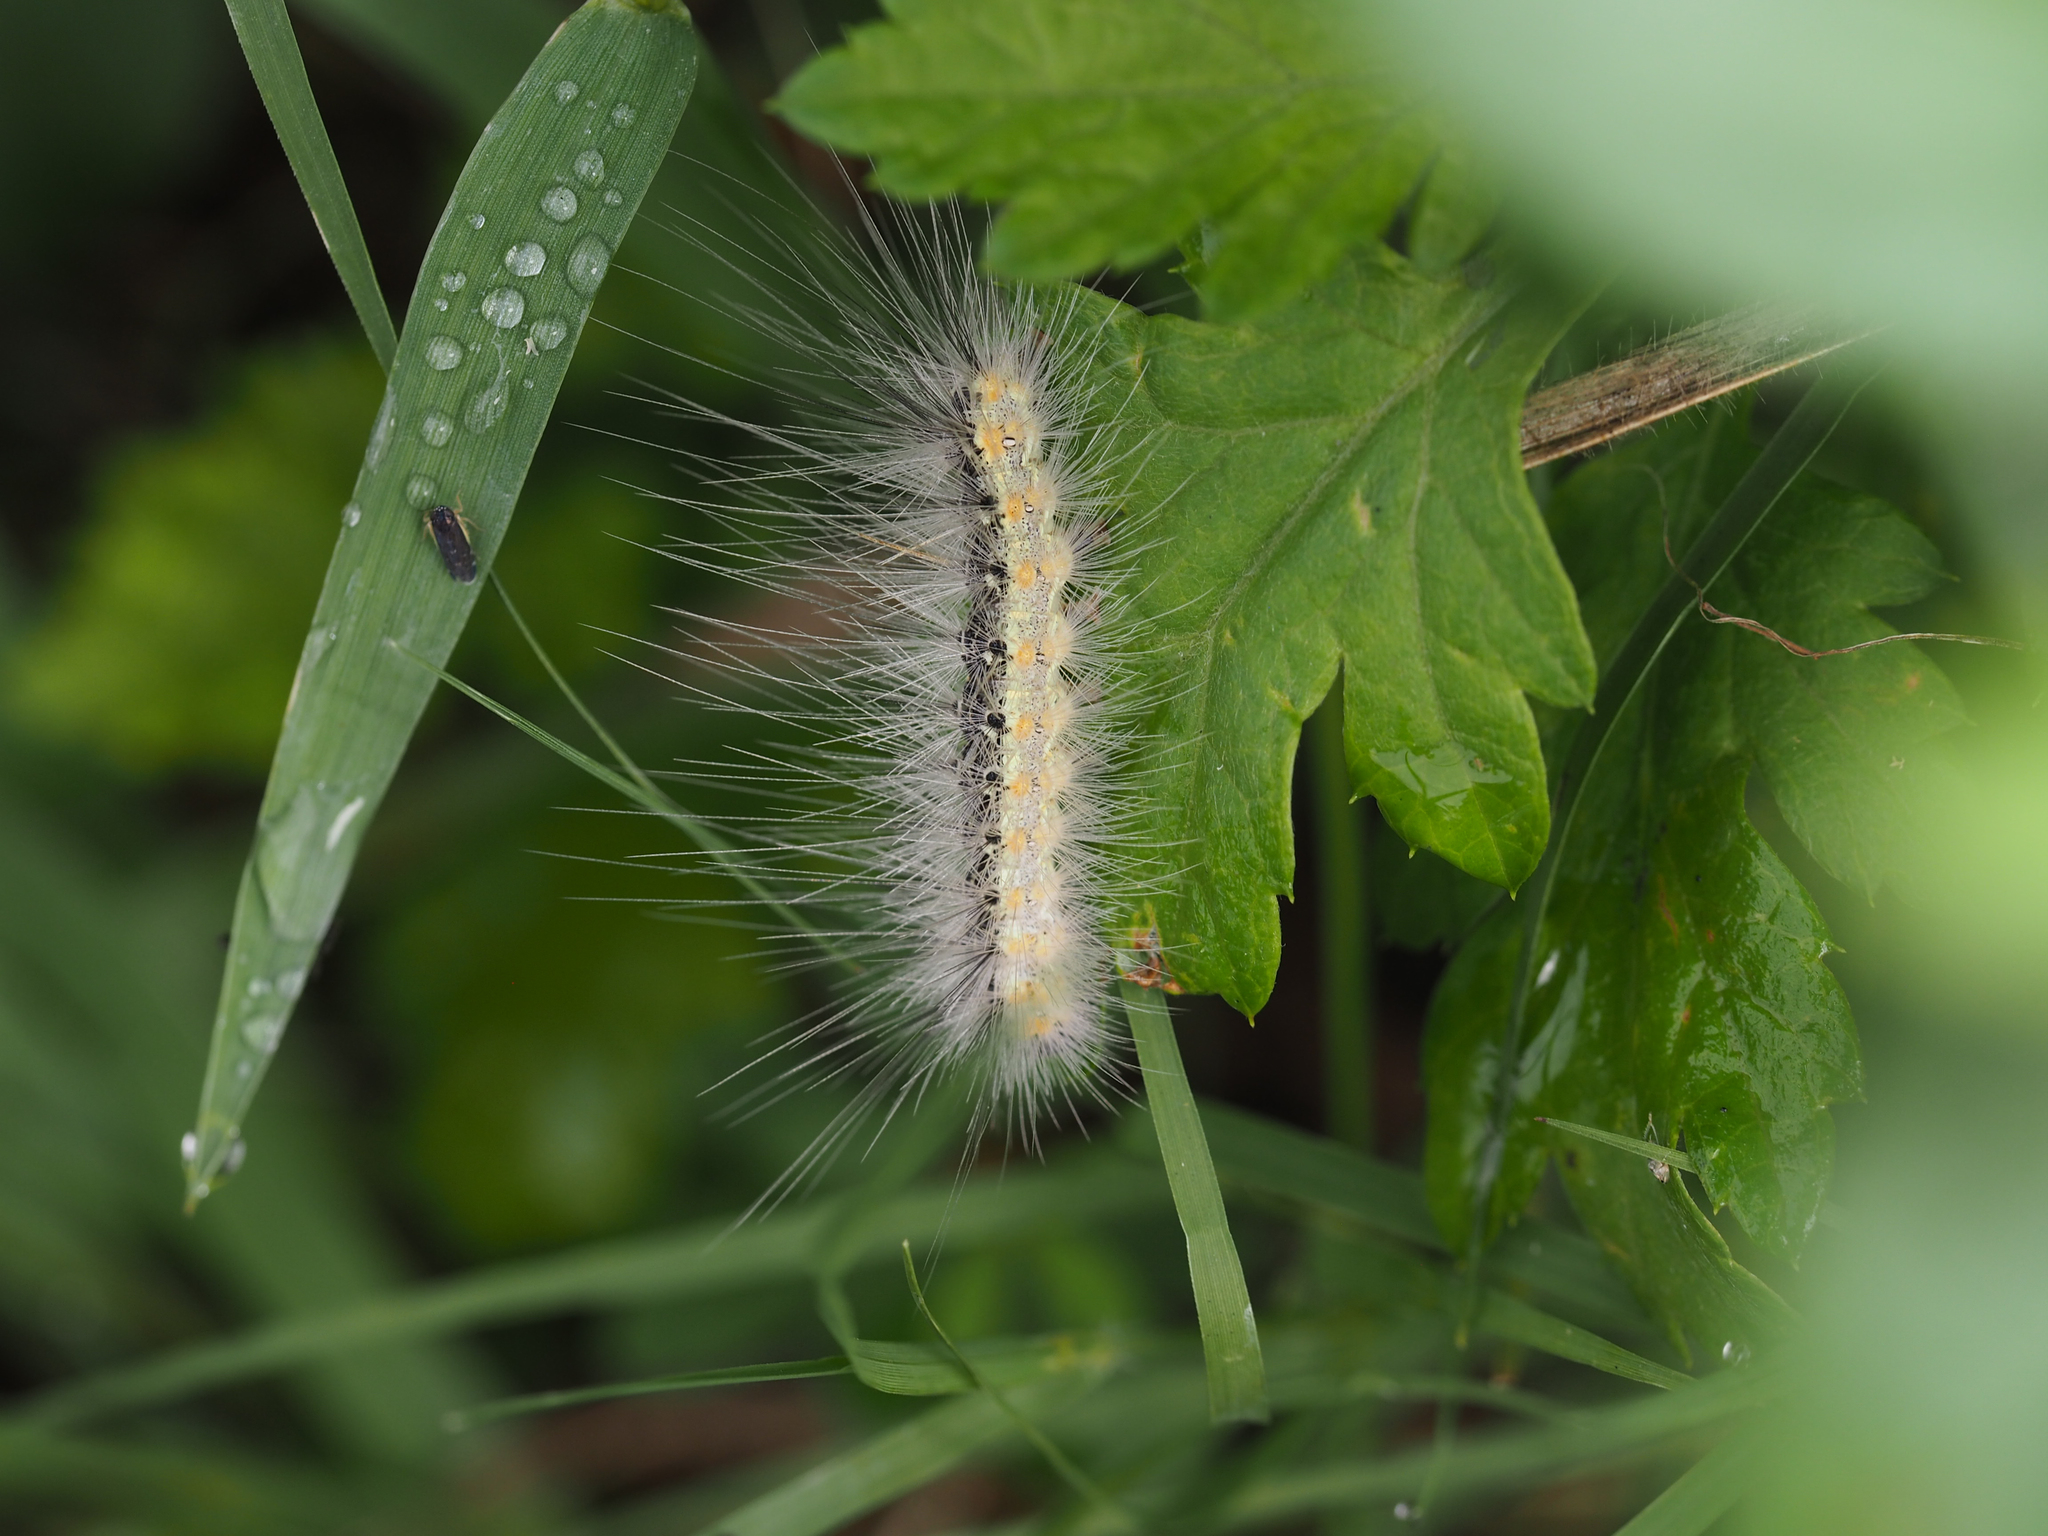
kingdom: Animalia
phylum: Arthropoda
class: Insecta
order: Lepidoptera
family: Erebidae
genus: Hyphantria
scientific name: Hyphantria cunea
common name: American white moth
